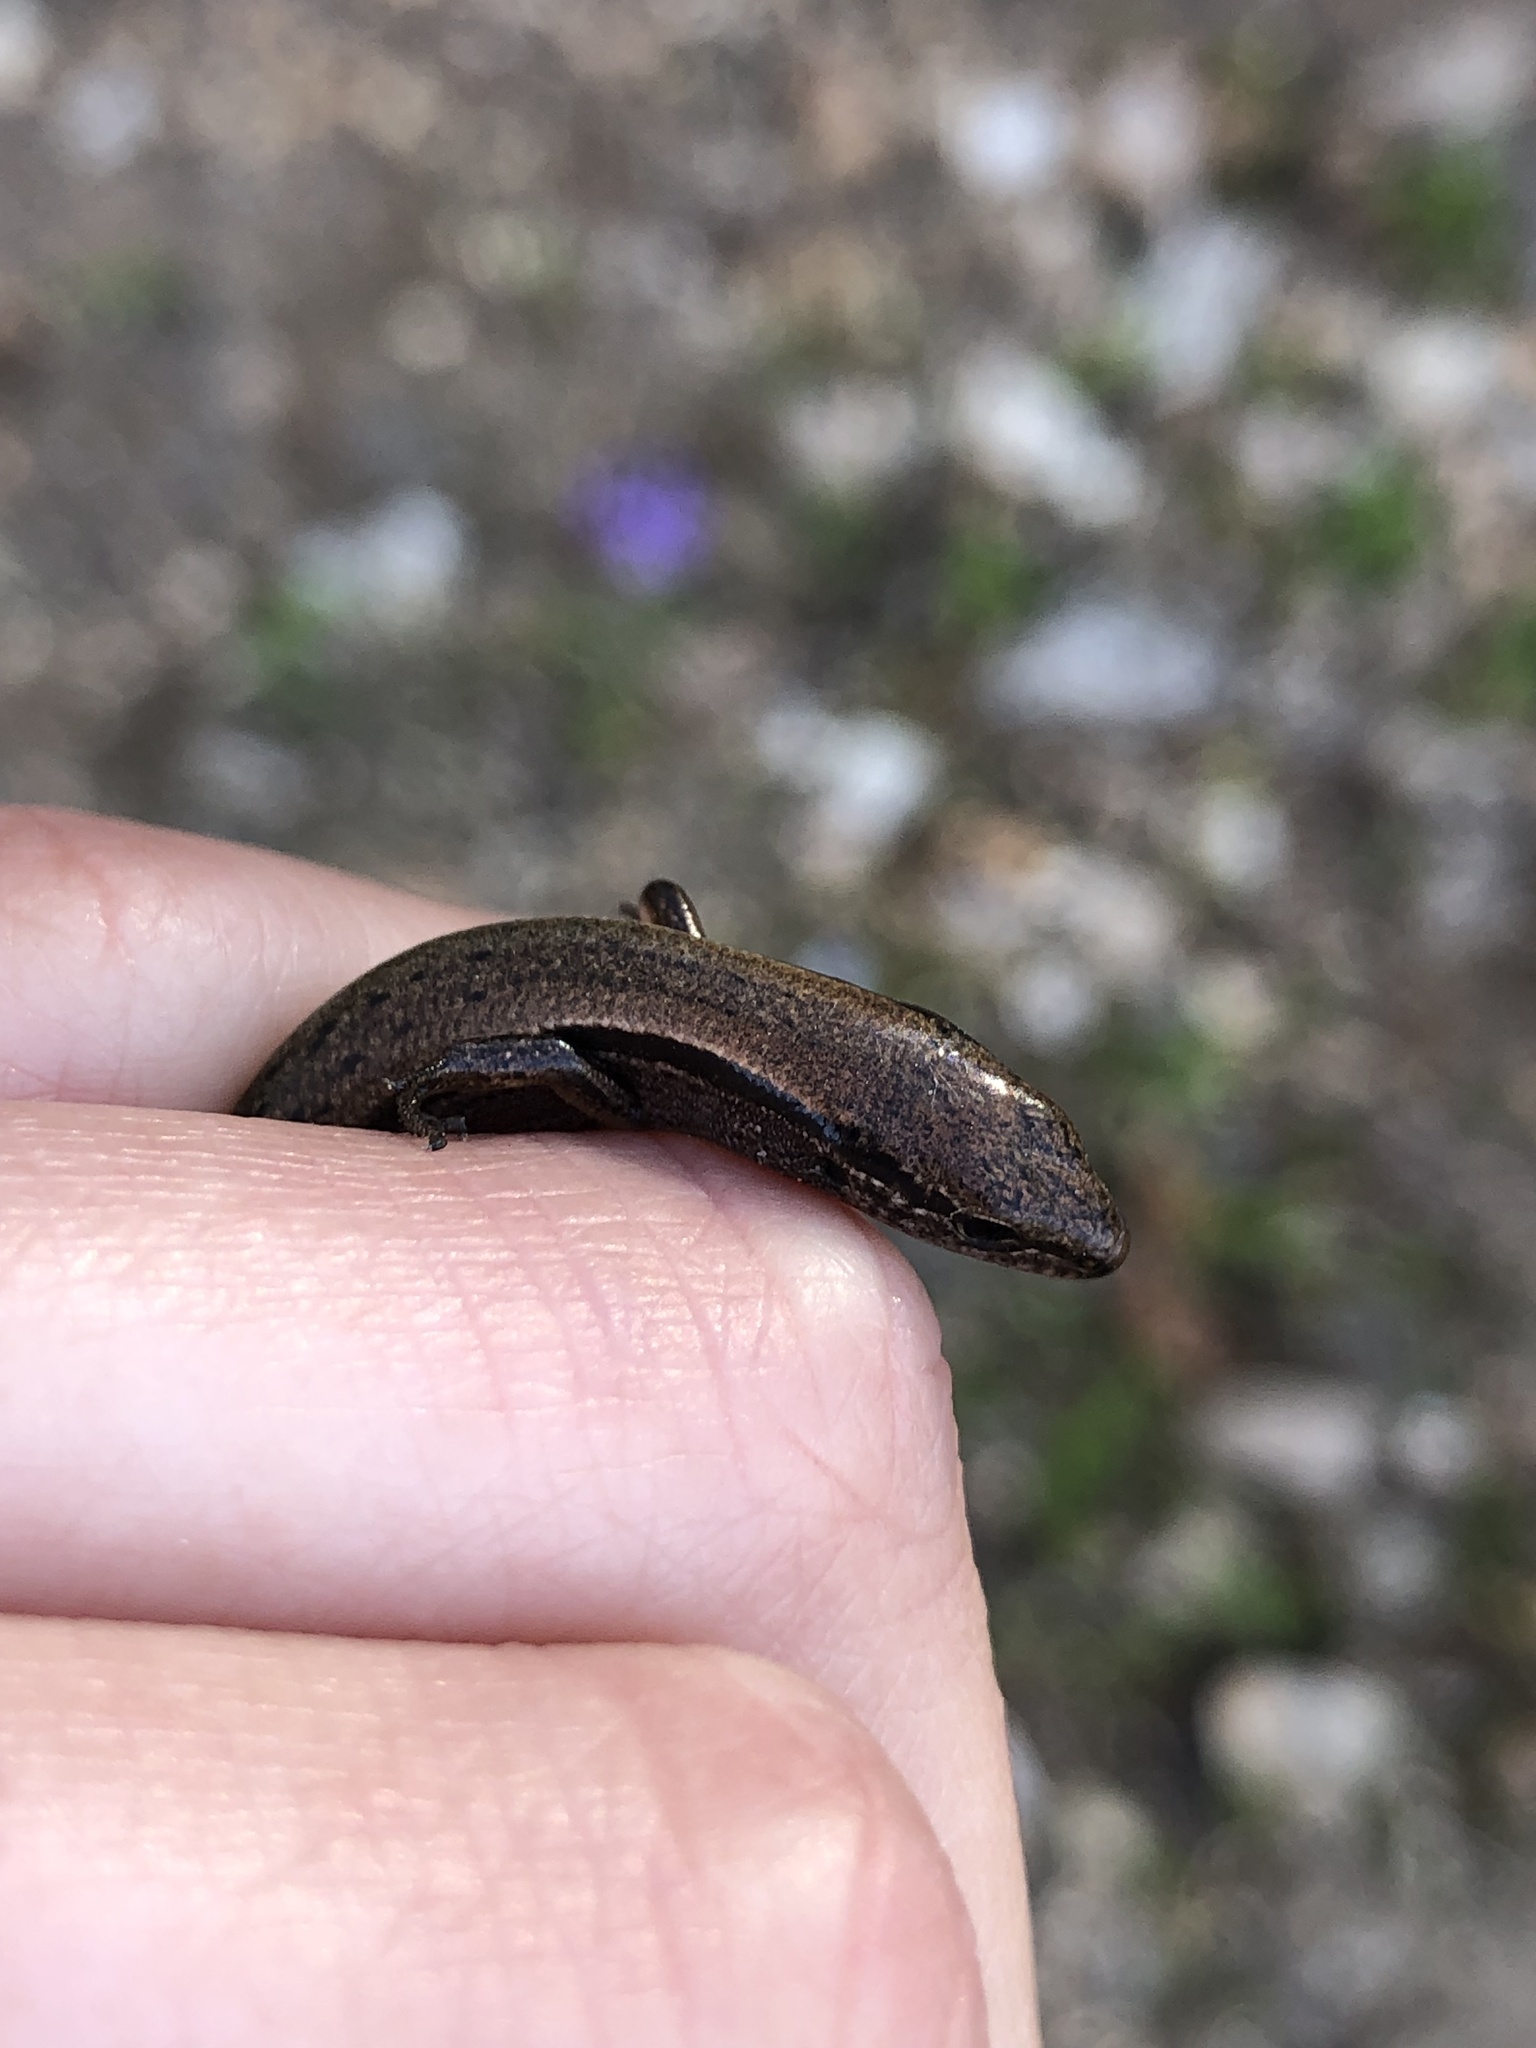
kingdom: Animalia
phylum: Chordata
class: Squamata
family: Scincidae
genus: Scincella
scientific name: Scincella lateralis
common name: Ground skink
